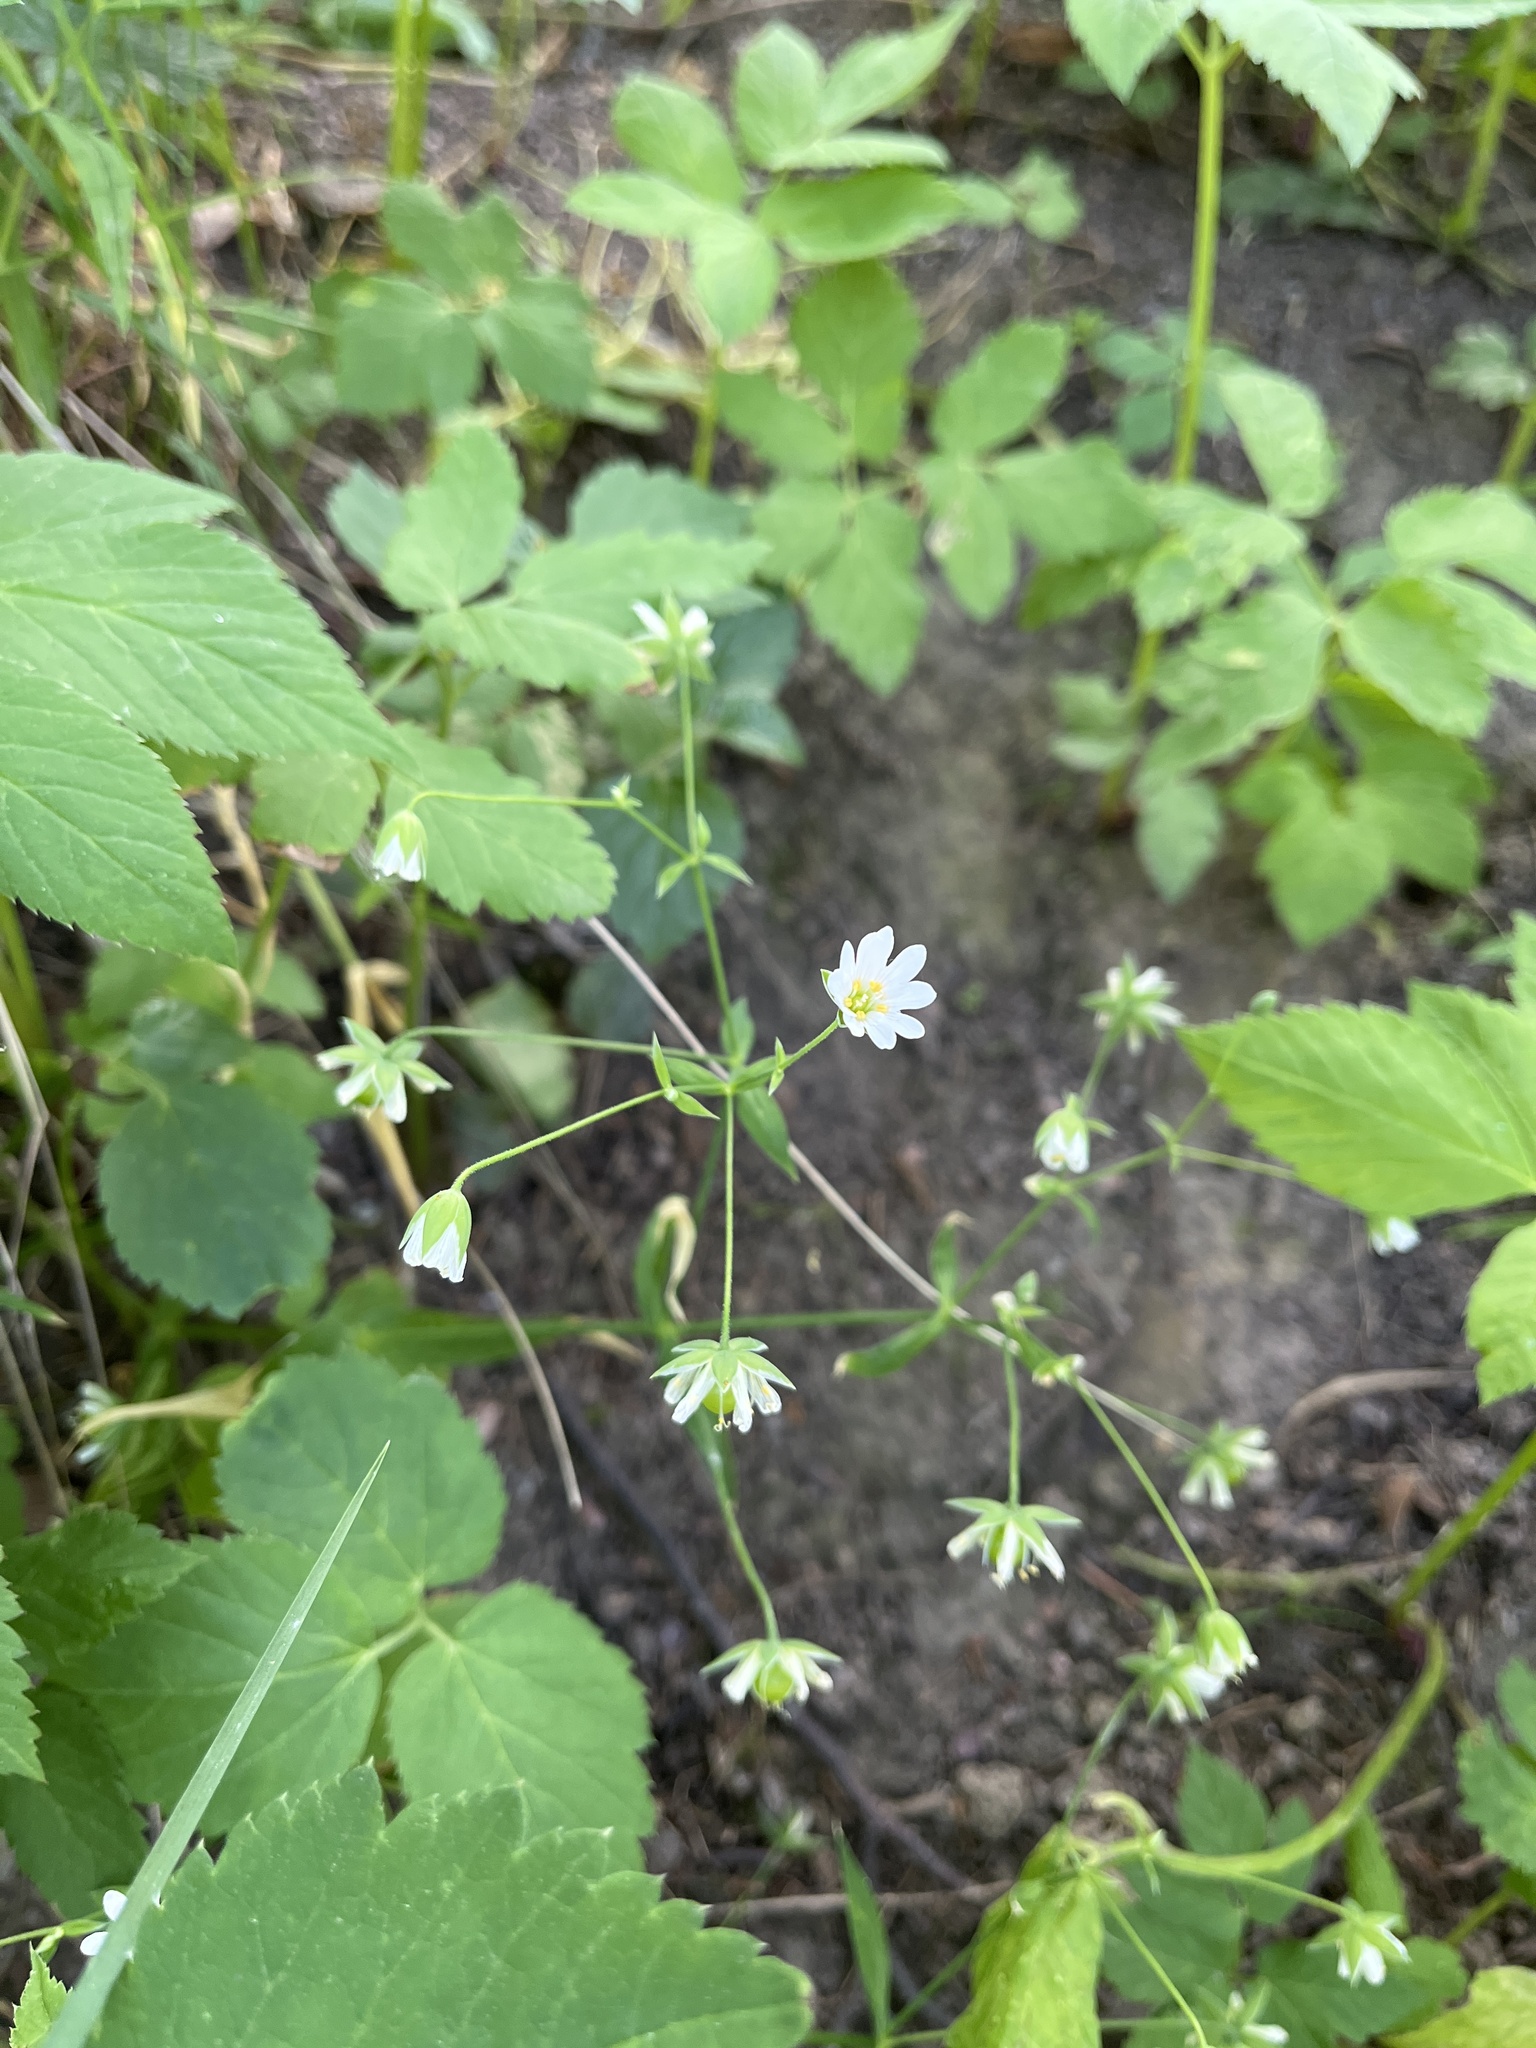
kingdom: Plantae
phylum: Tracheophyta
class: Magnoliopsida
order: Caryophyllales
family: Caryophyllaceae
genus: Rabelera
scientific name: Rabelera holostea
